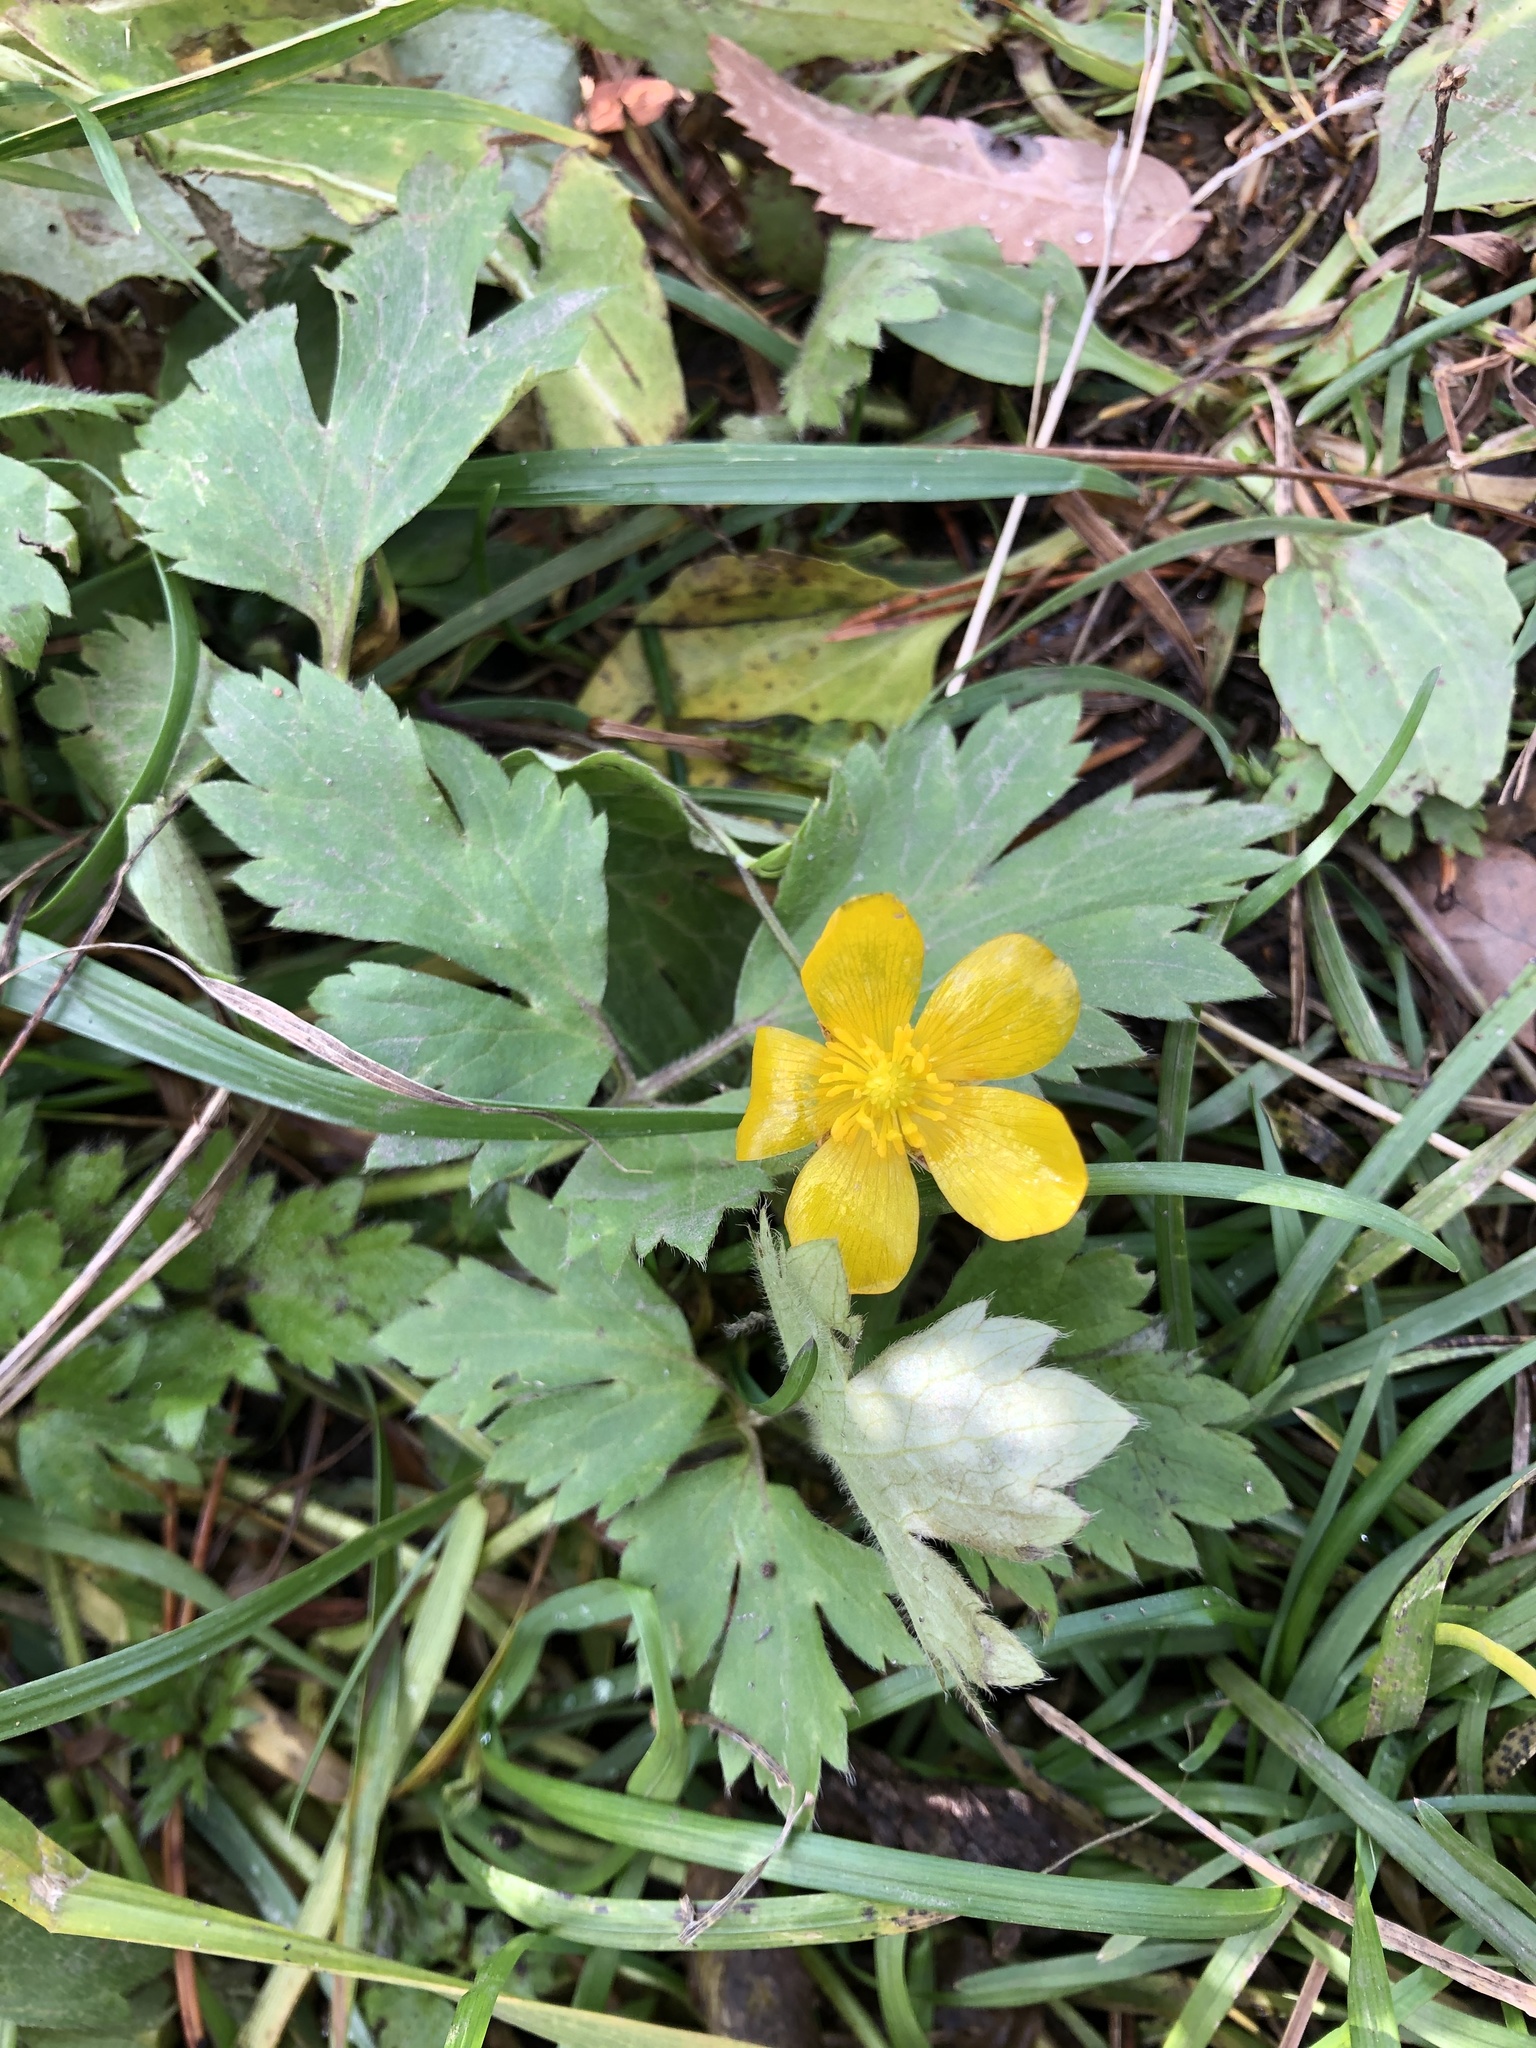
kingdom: Plantae
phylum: Tracheophyta
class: Magnoliopsida
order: Ranunculales
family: Ranunculaceae
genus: Ranunculus
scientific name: Ranunculus repens
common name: Creeping buttercup
